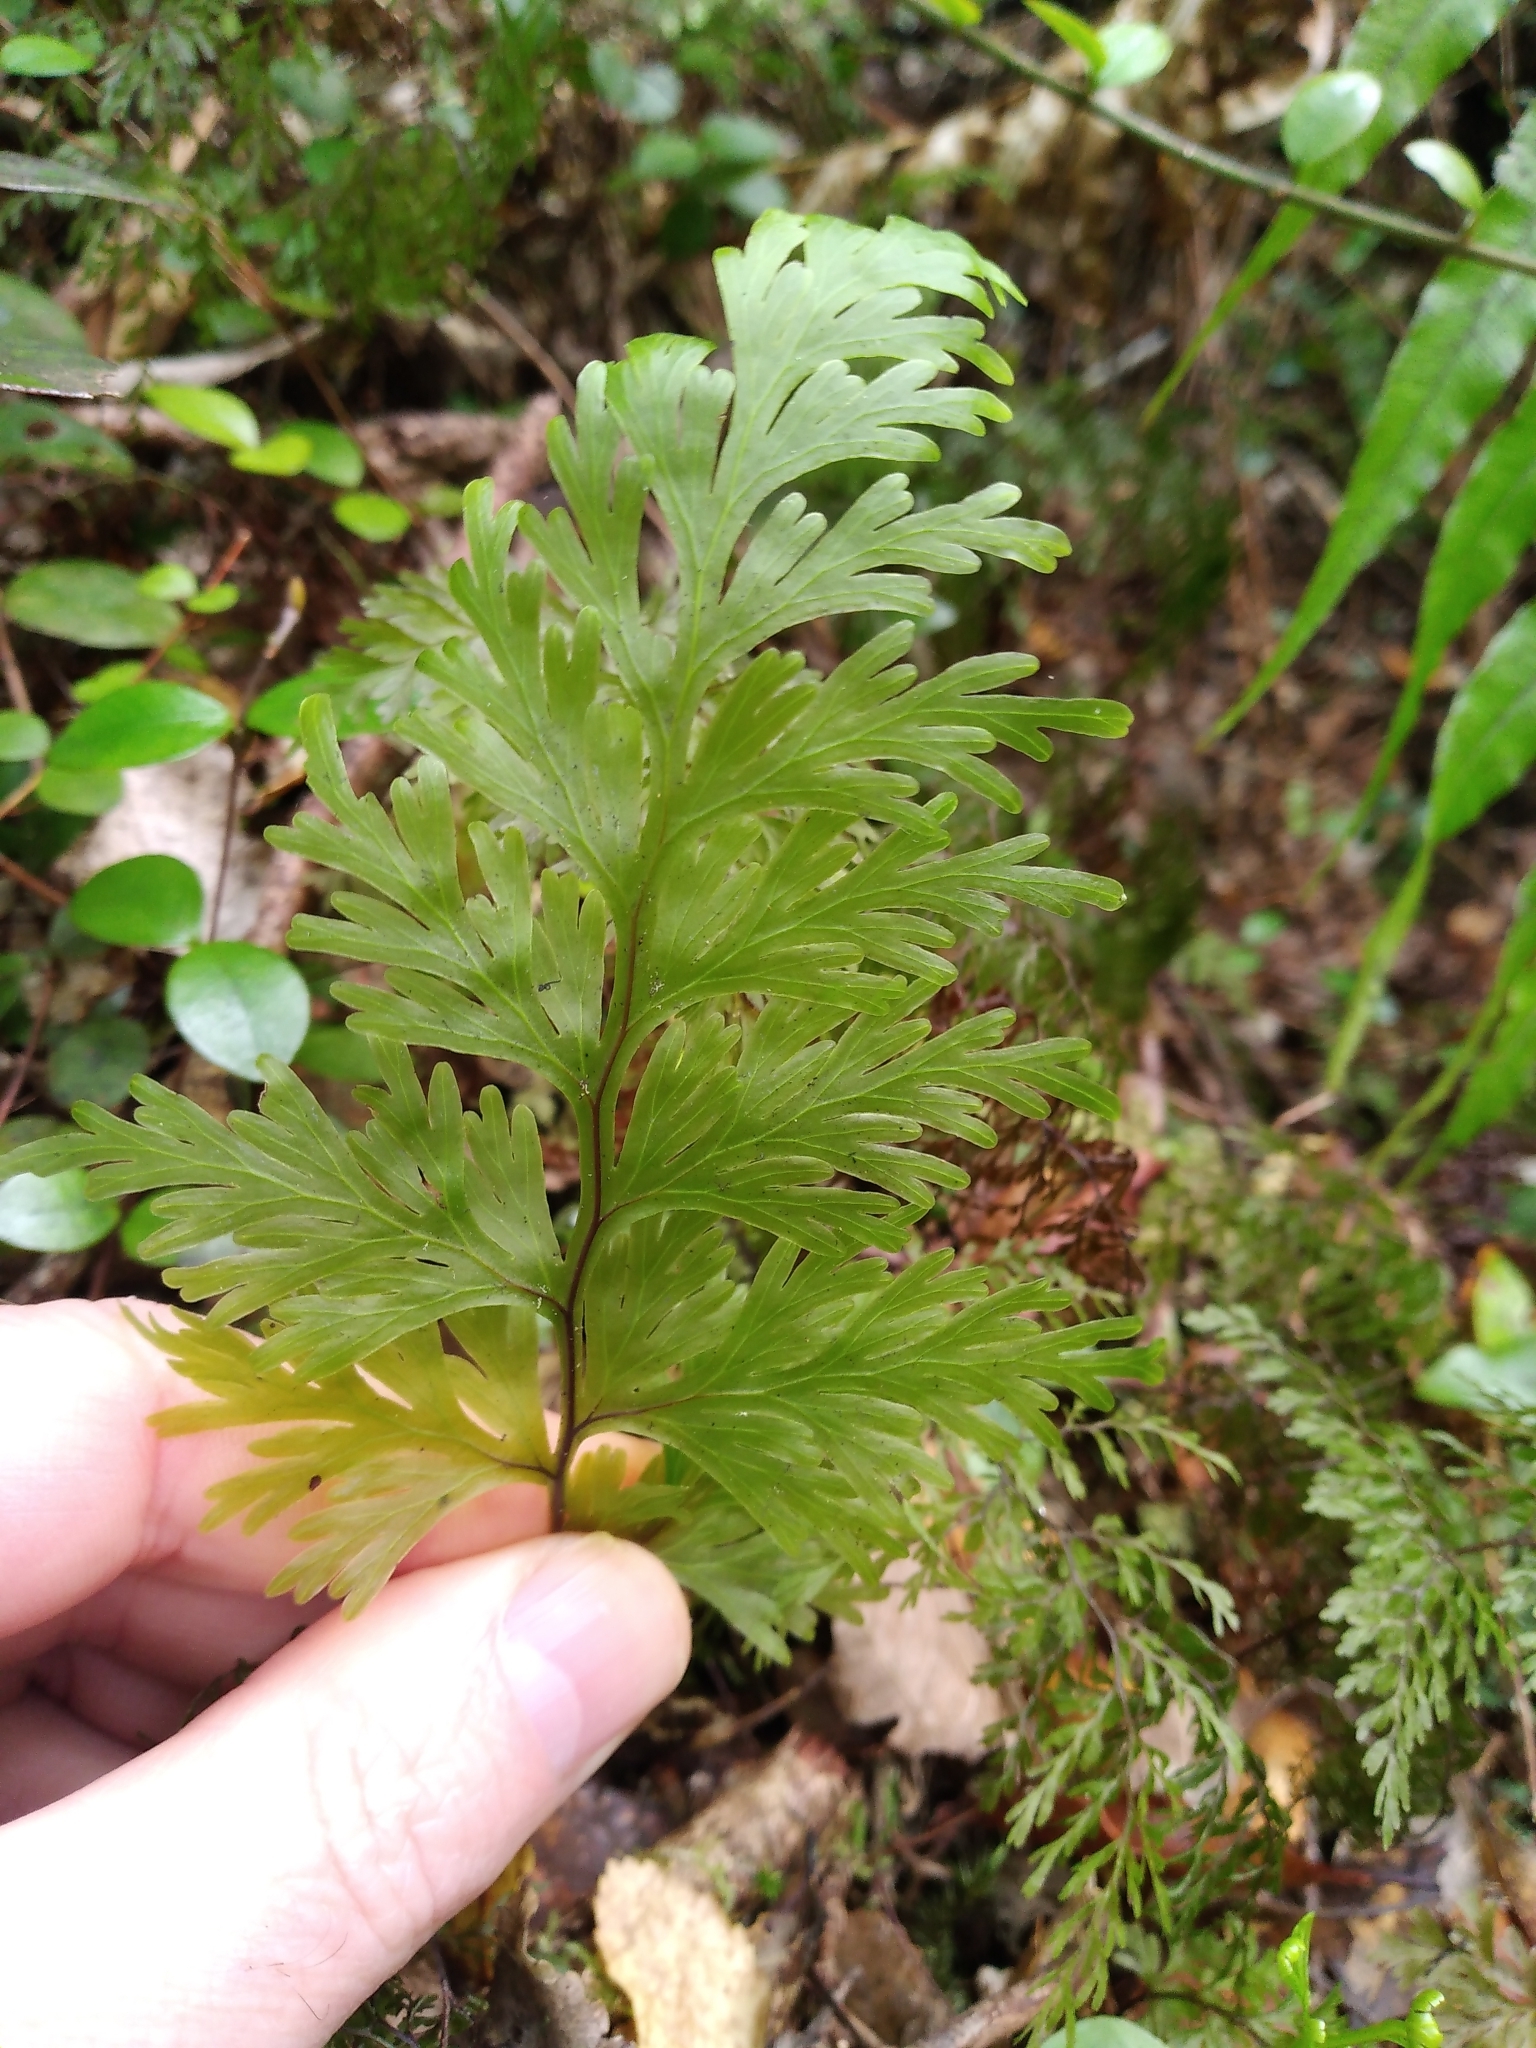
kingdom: Plantae
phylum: Tracheophyta
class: Polypodiopsida
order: Hymenophyllales
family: Hymenophyllaceae
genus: Hymenophyllum
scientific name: Hymenophyllum dilatatum
